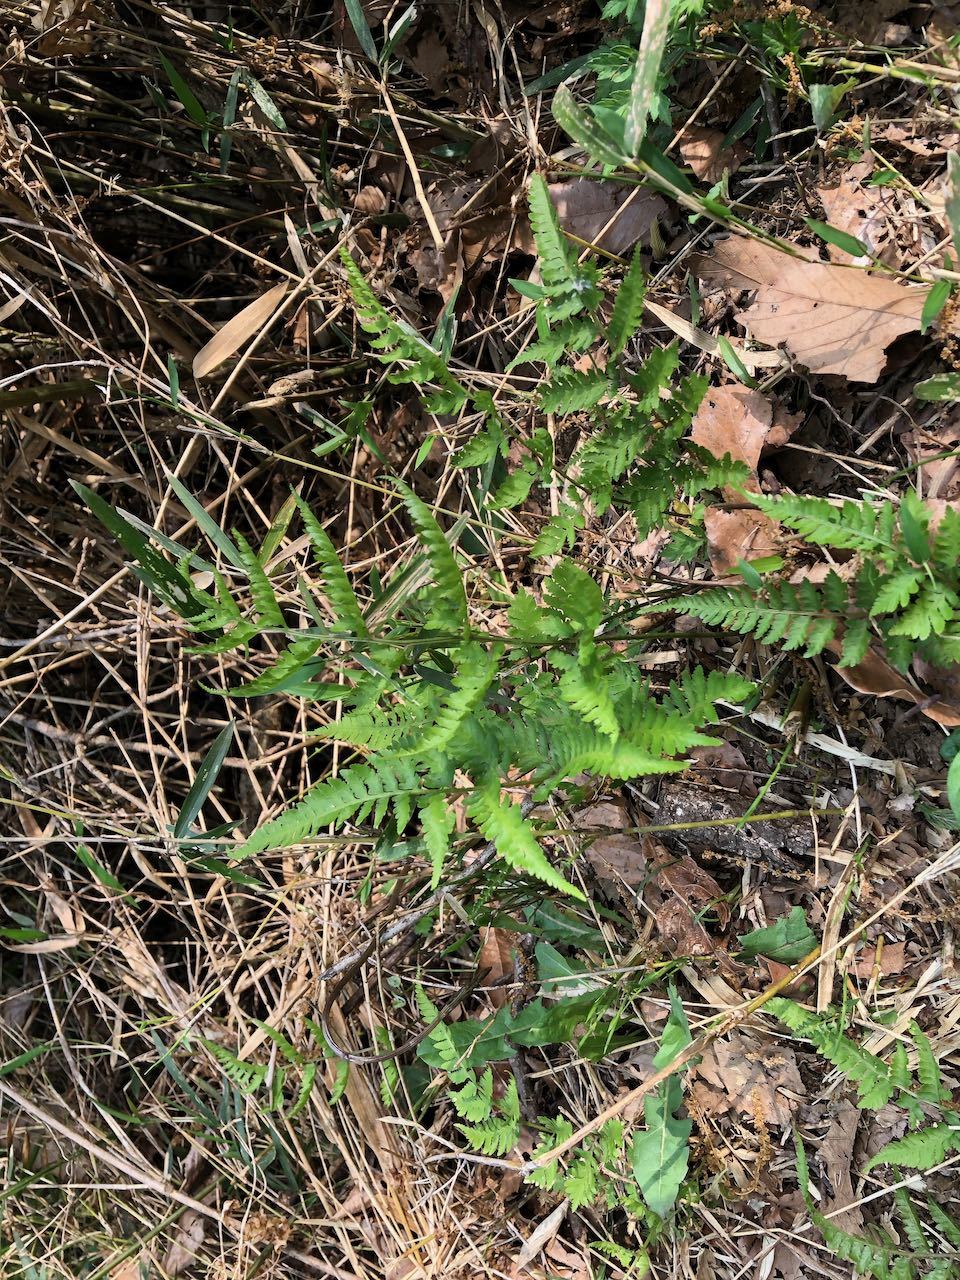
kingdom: Plantae
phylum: Tracheophyta
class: Polypodiopsida
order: Polypodiales
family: Athyriaceae
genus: Anisocampium
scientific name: Anisocampium niponicum
